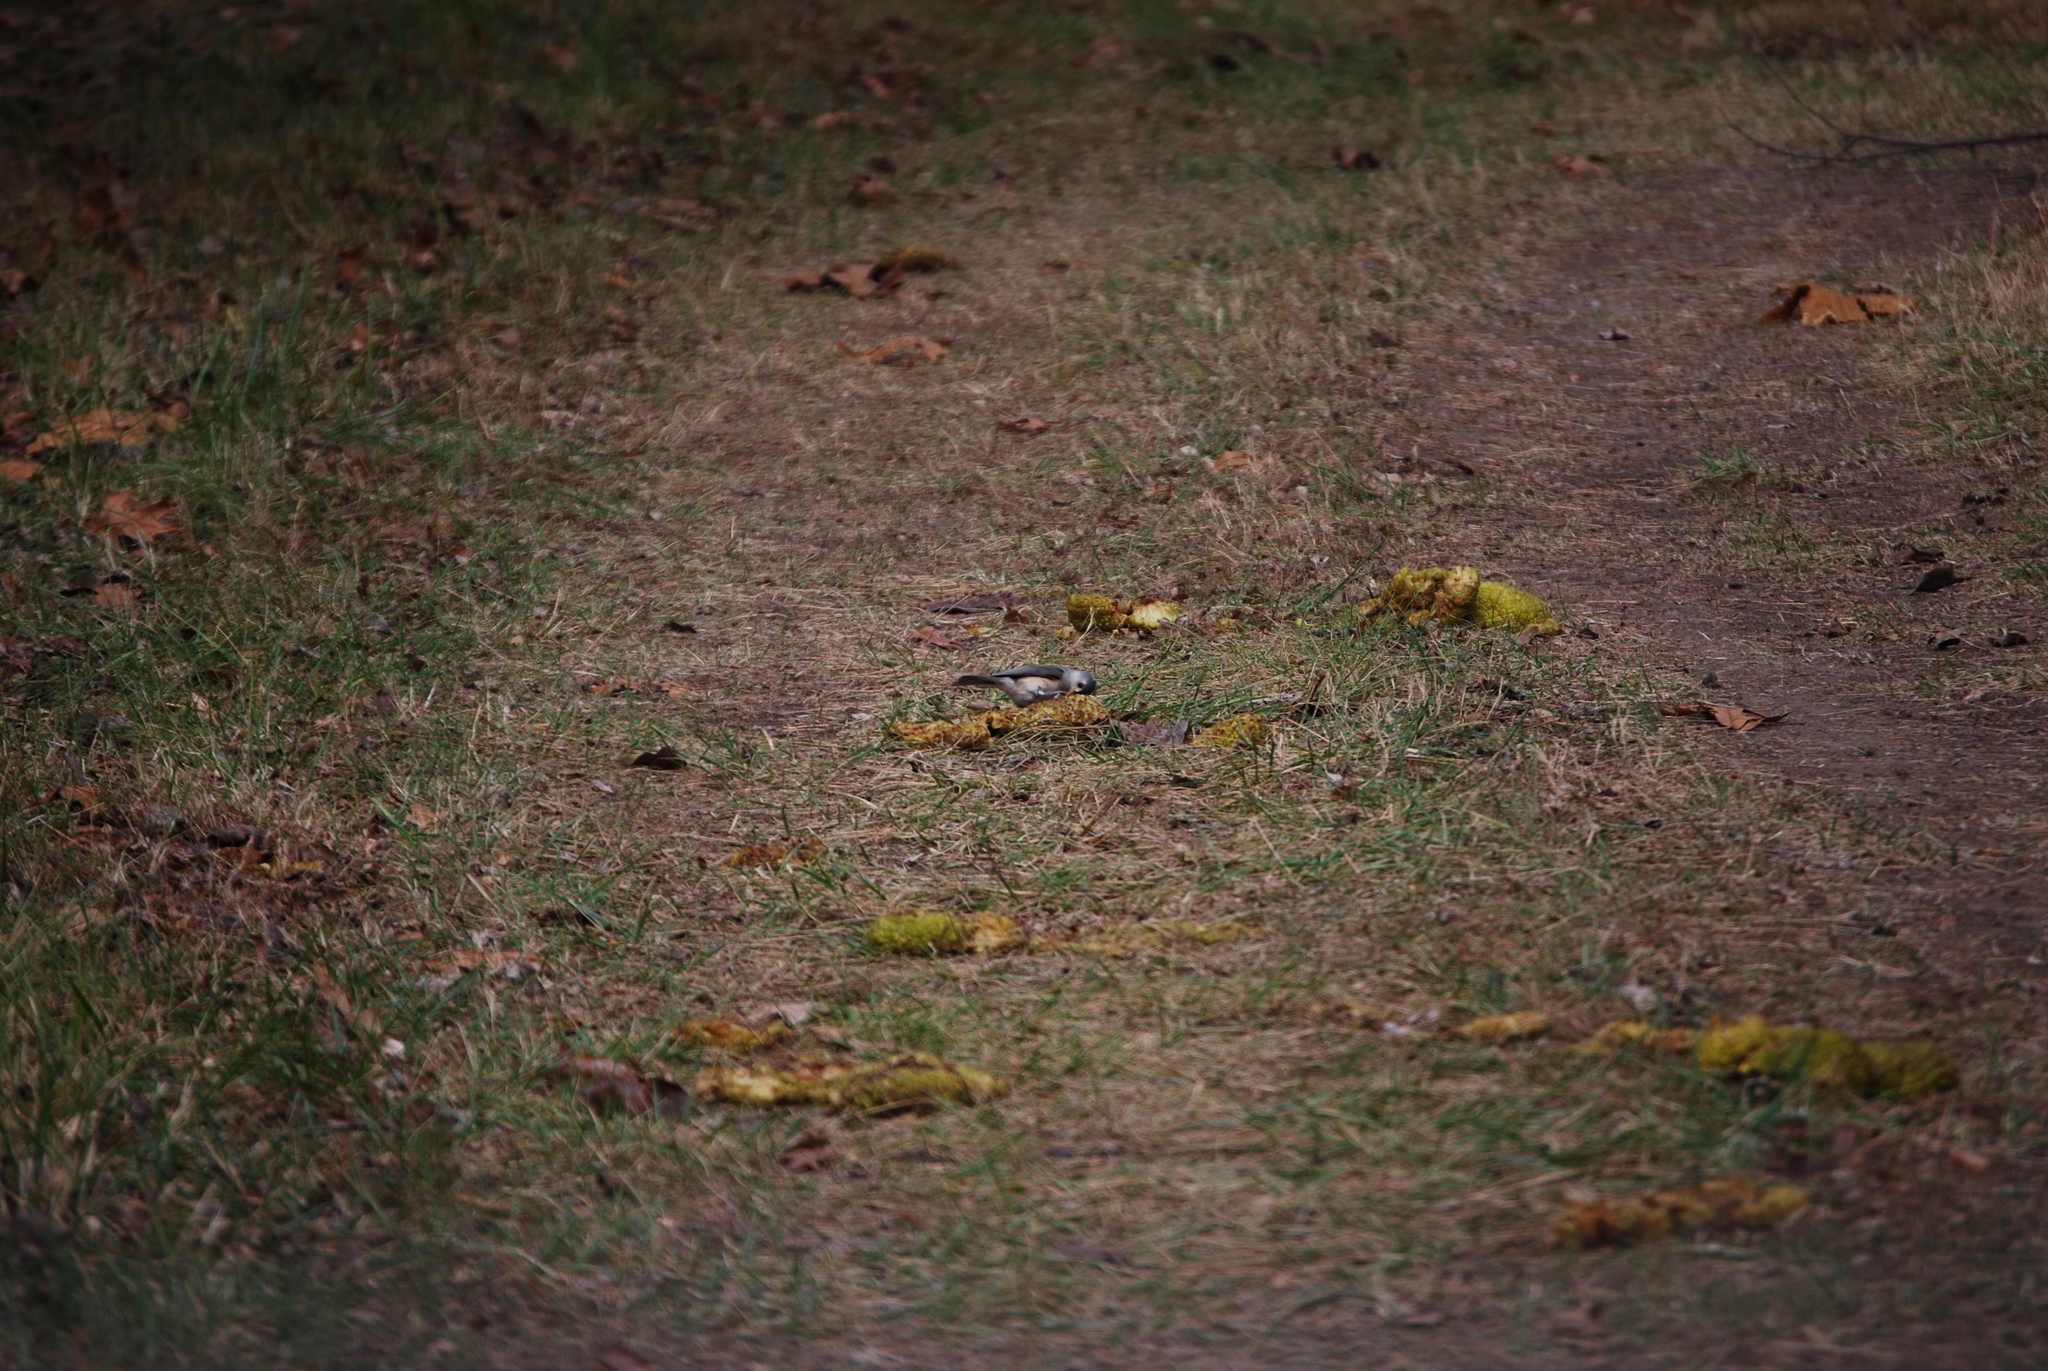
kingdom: Animalia
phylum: Chordata
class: Aves
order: Passeriformes
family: Paridae
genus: Baeolophus
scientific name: Baeolophus bicolor
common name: Tufted titmouse
